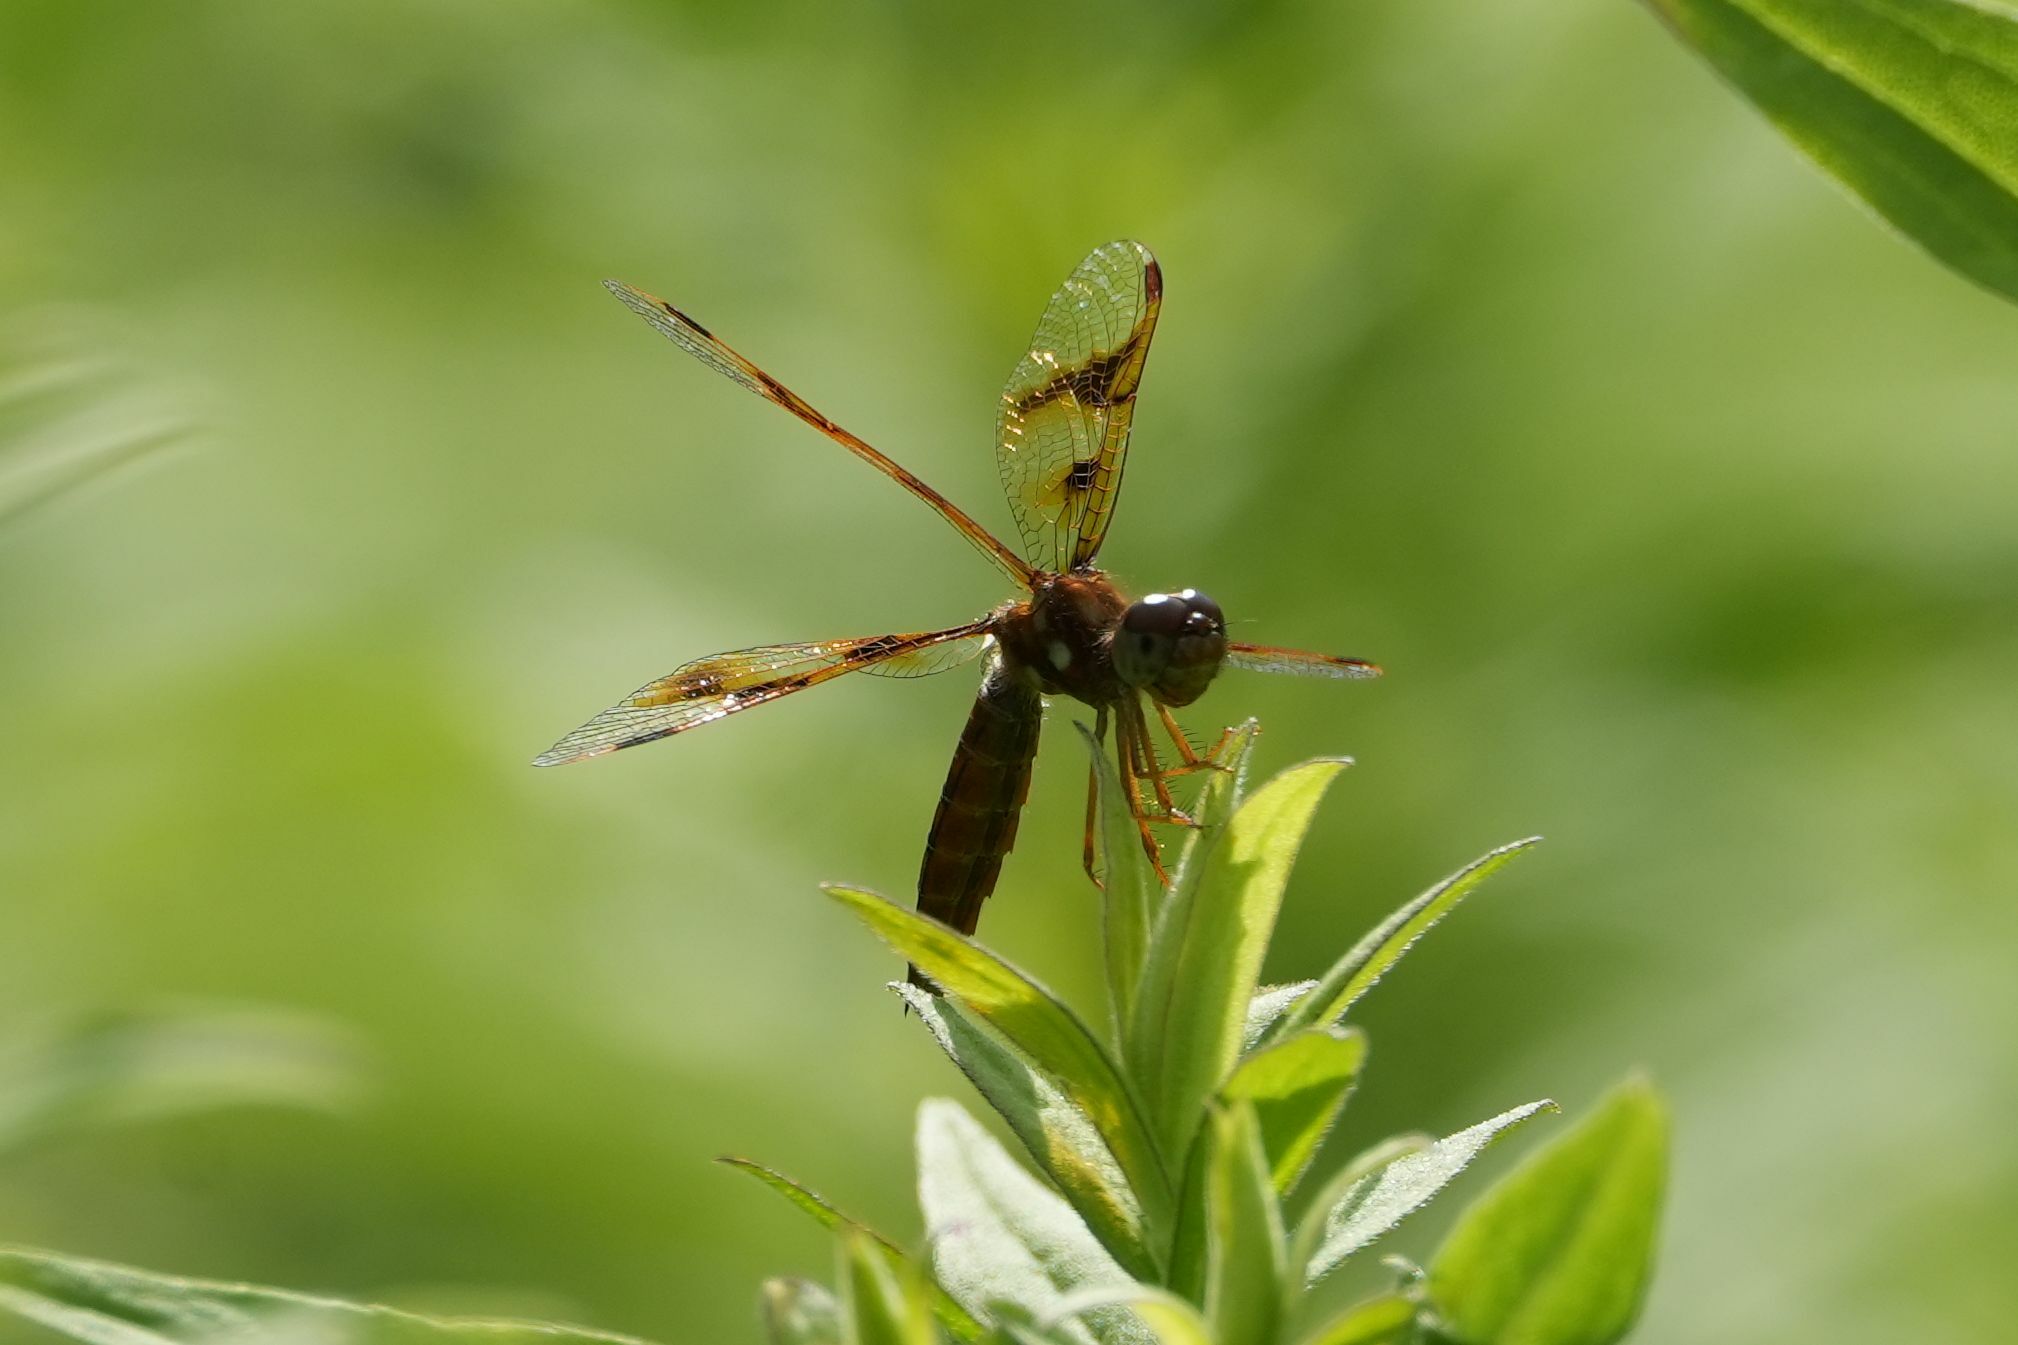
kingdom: Animalia
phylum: Arthropoda
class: Insecta
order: Odonata
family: Libellulidae
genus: Perithemis
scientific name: Perithemis tenera
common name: Eastern amberwing
